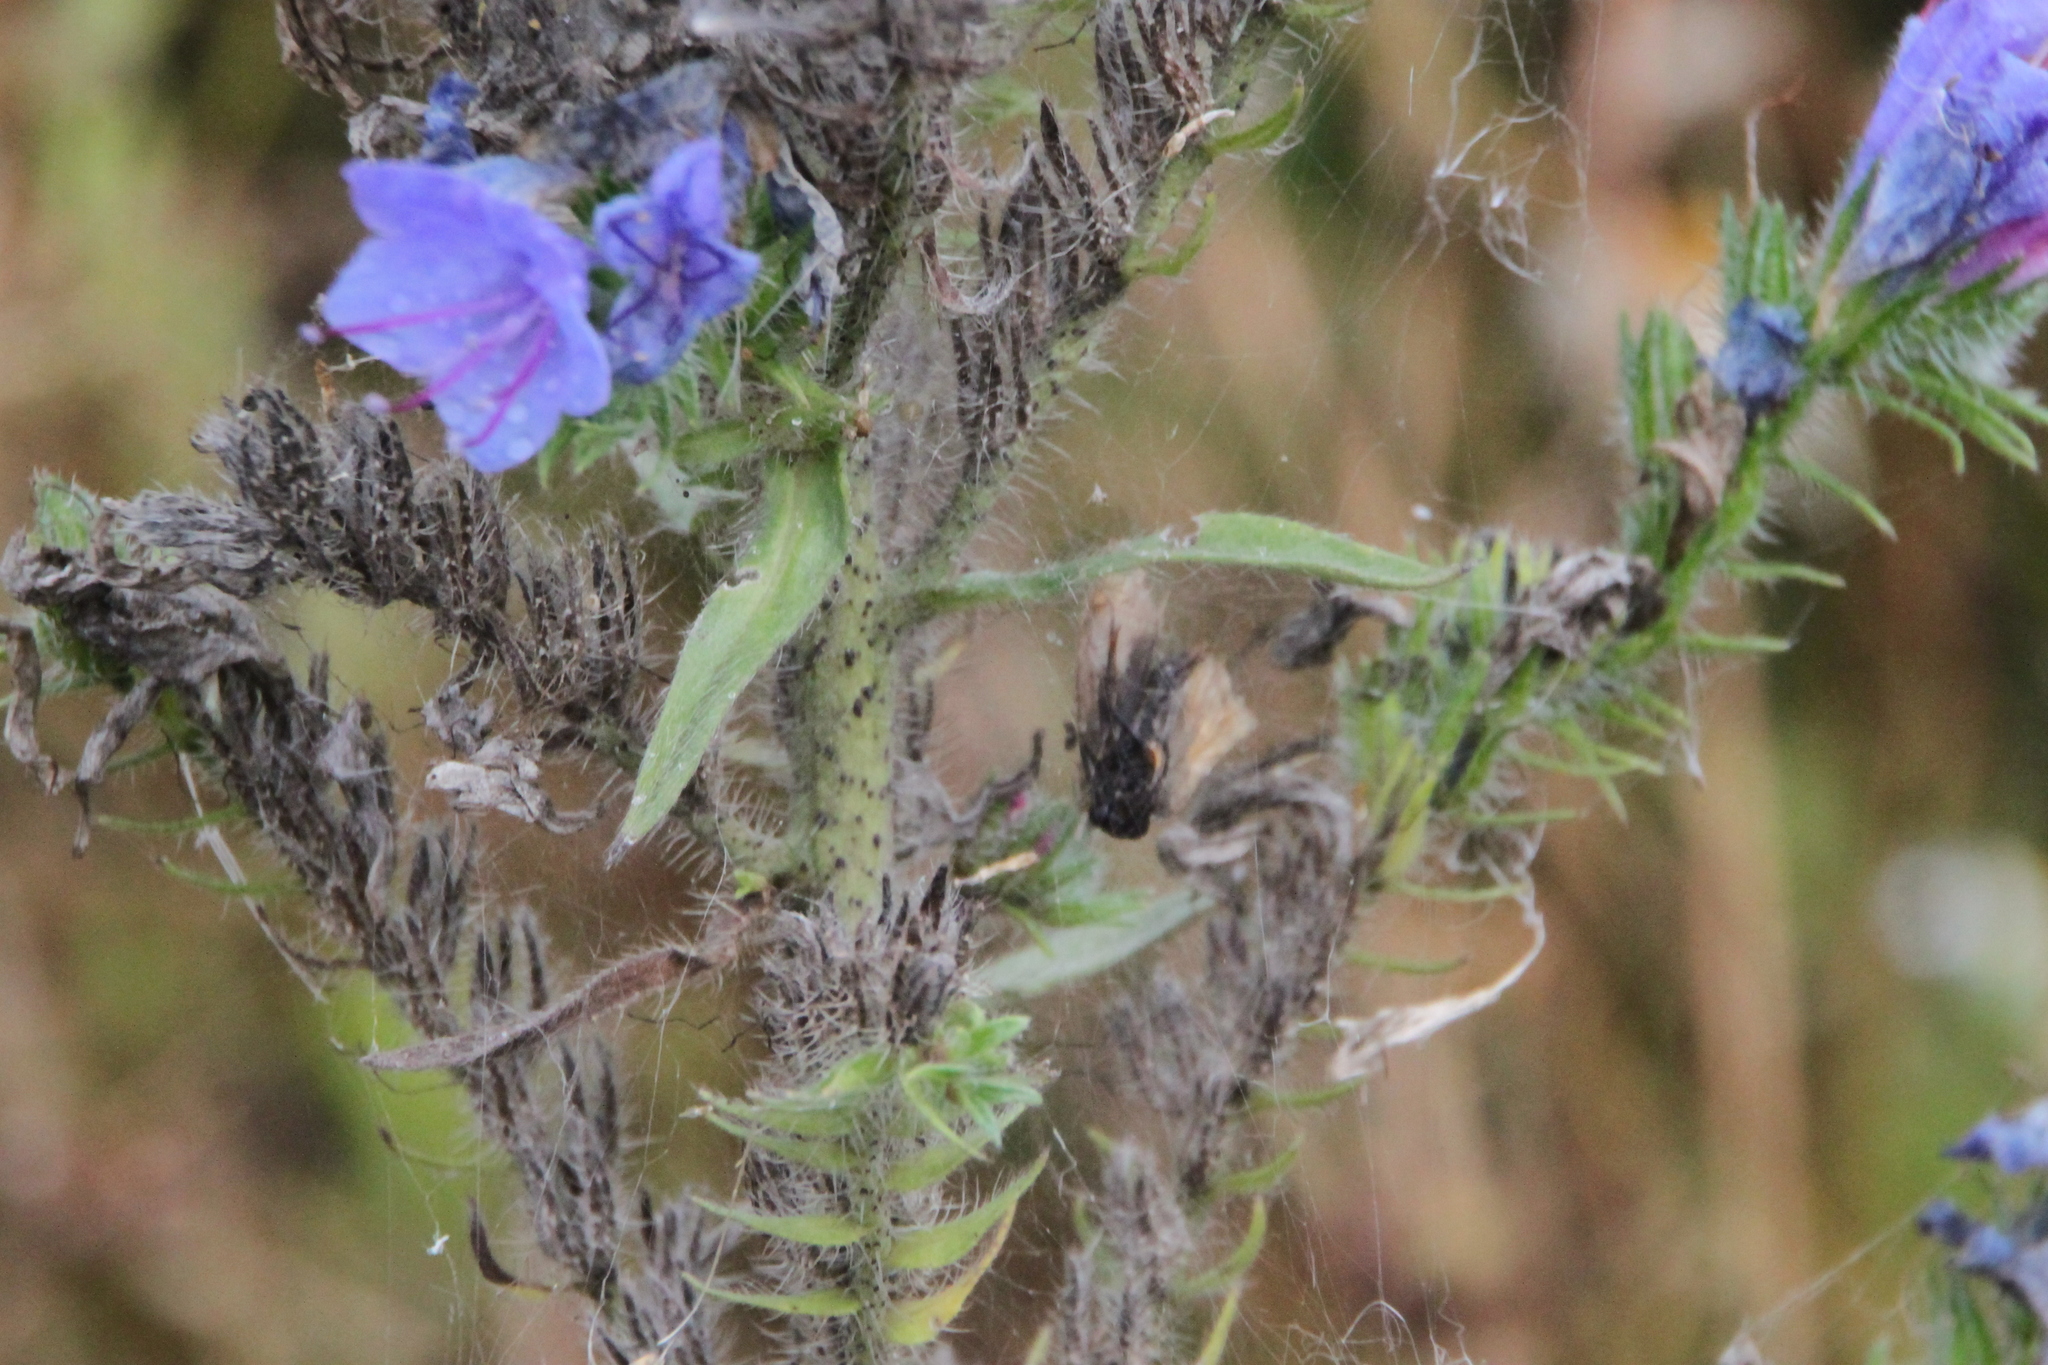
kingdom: Plantae
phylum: Tracheophyta
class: Magnoliopsida
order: Boraginales
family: Boraginaceae
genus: Echium
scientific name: Echium vulgare
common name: Common viper's bugloss
